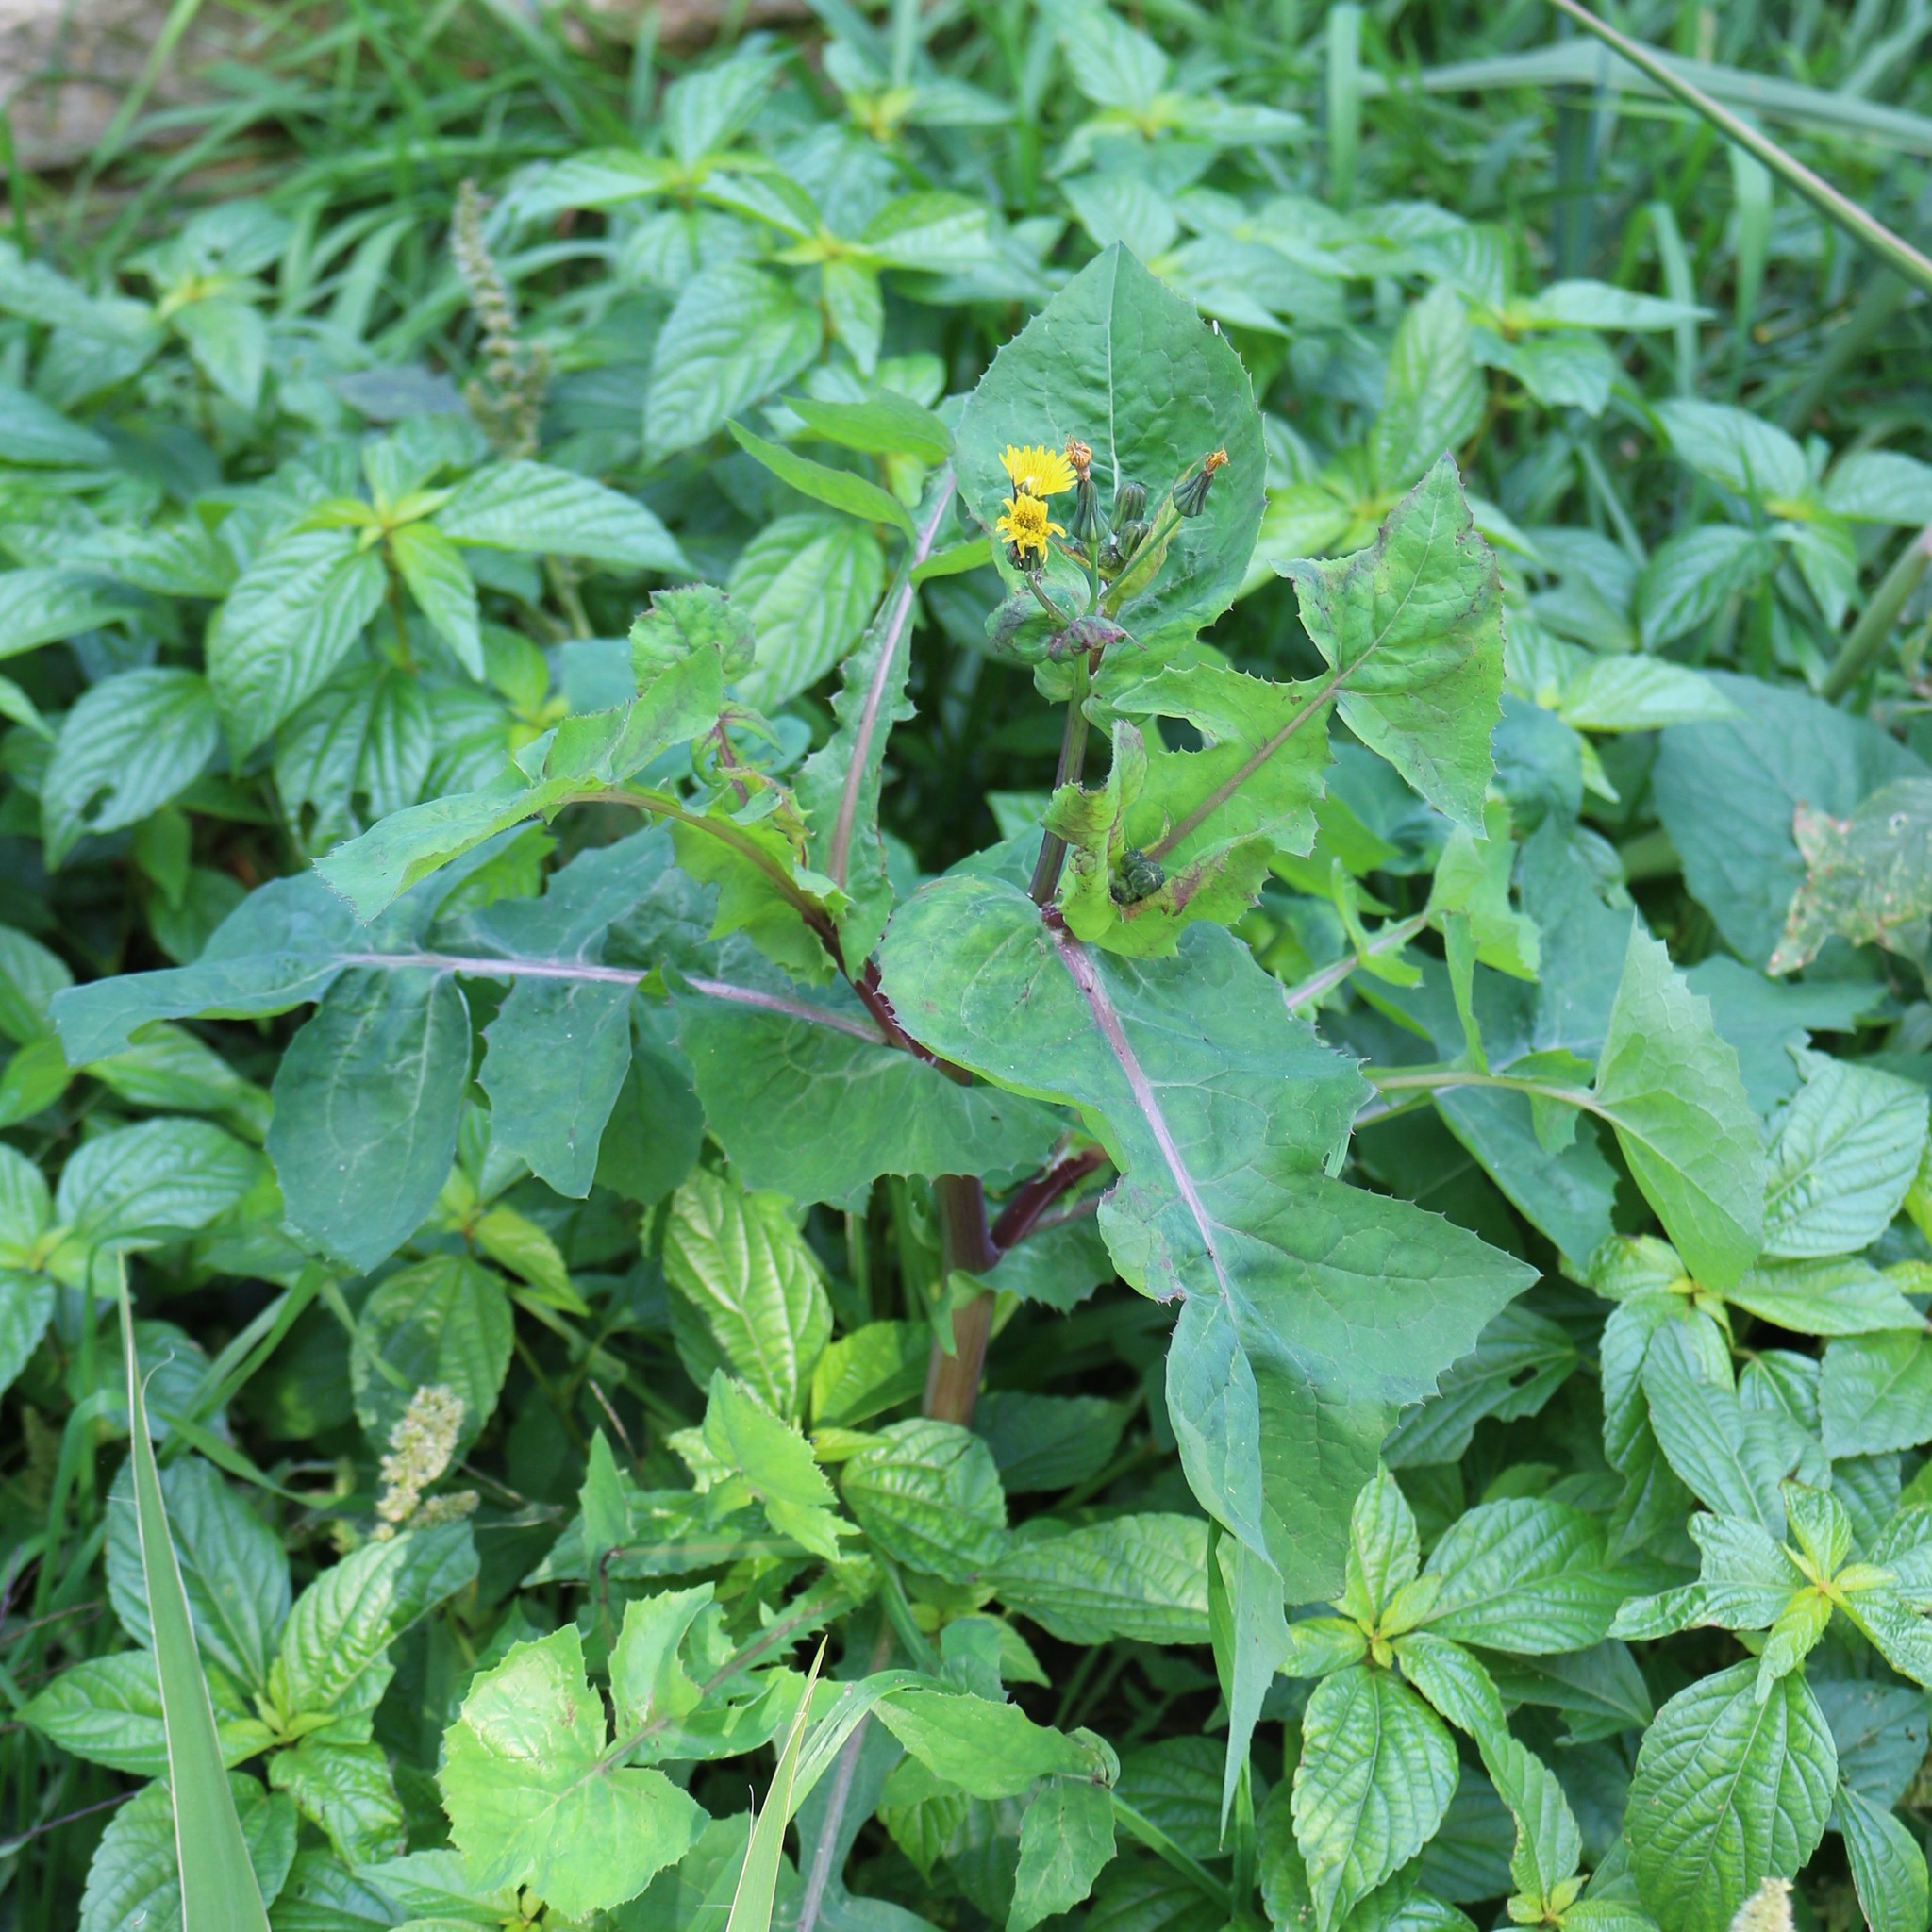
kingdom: Plantae
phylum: Tracheophyta
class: Magnoliopsida
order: Asterales
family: Asteraceae
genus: Sonchus
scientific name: Sonchus oleraceus
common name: Common sowthistle
